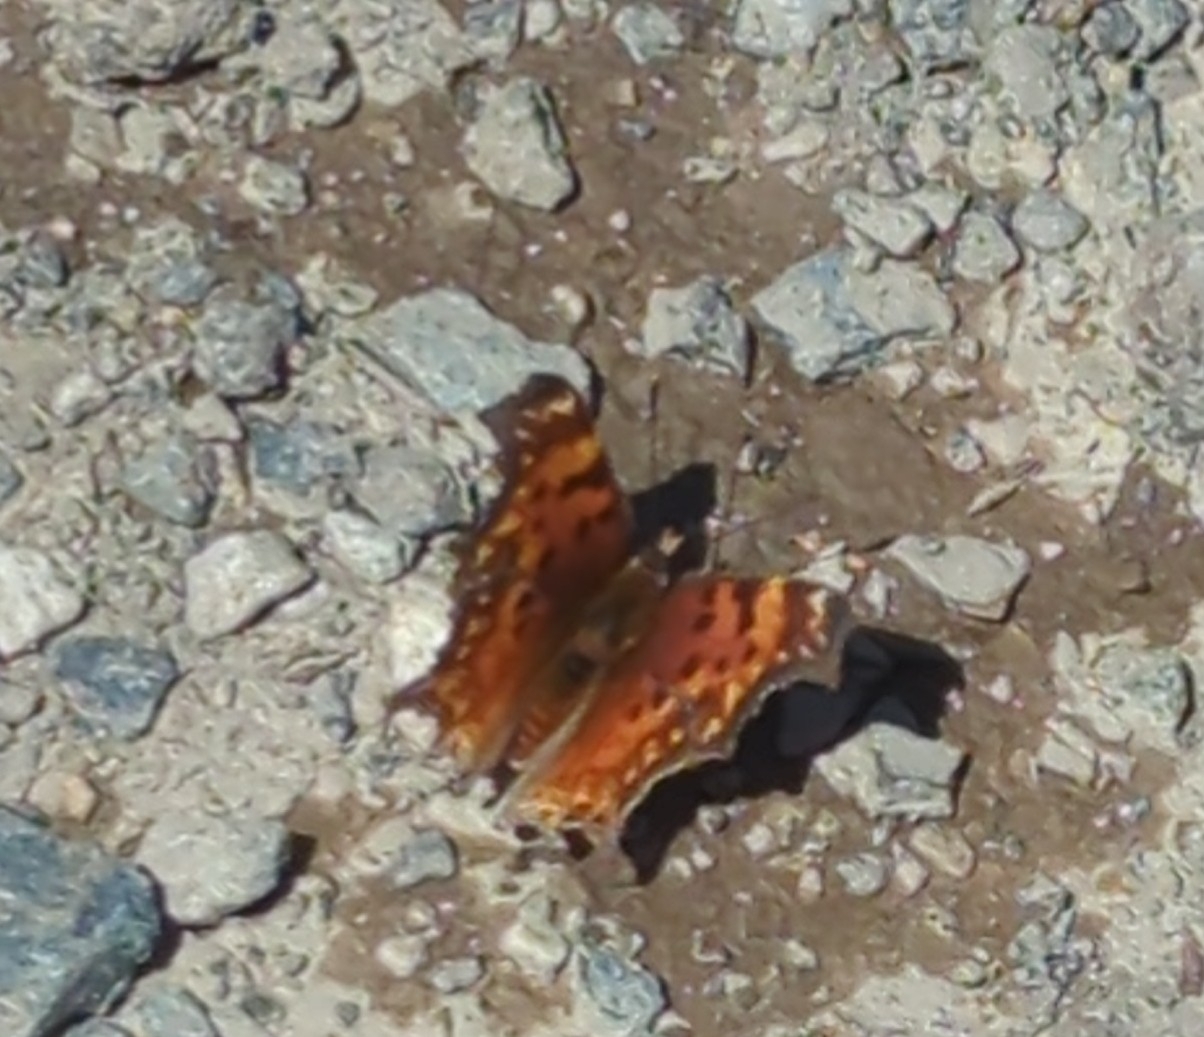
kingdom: Animalia
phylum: Arthropoda
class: Insecta
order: Lepidoptera
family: Nymphalidae
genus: Polygonia
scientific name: Polygonia gracilis
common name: Hoary comma
